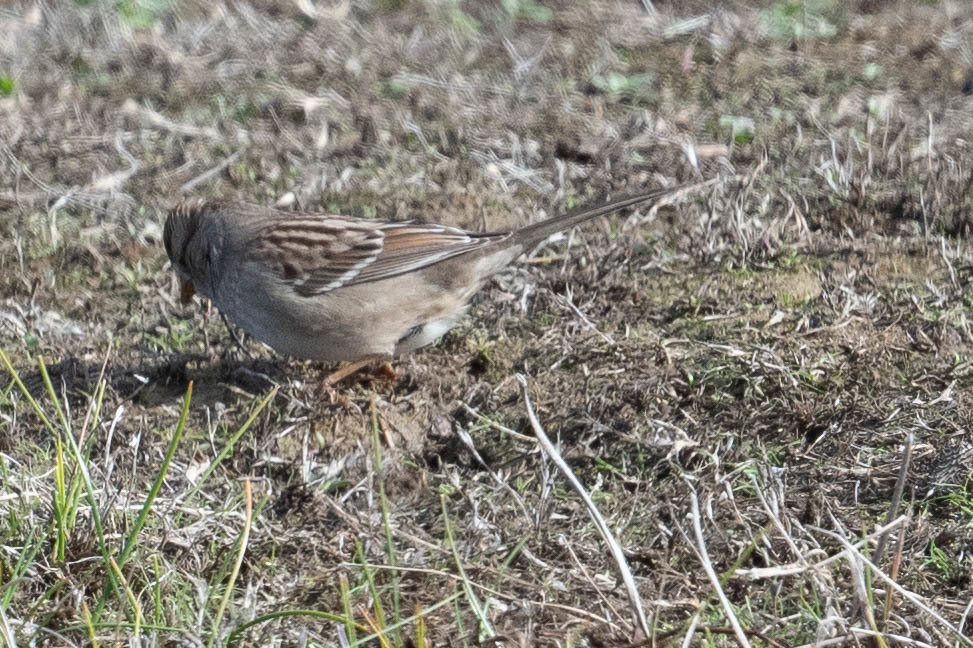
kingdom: Animalia
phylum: Chordata
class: Aves
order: Passeriformes
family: Passerellidae
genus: Zonotrichia
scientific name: Zonotrichia leucophrys
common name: White-crowned sparrow
